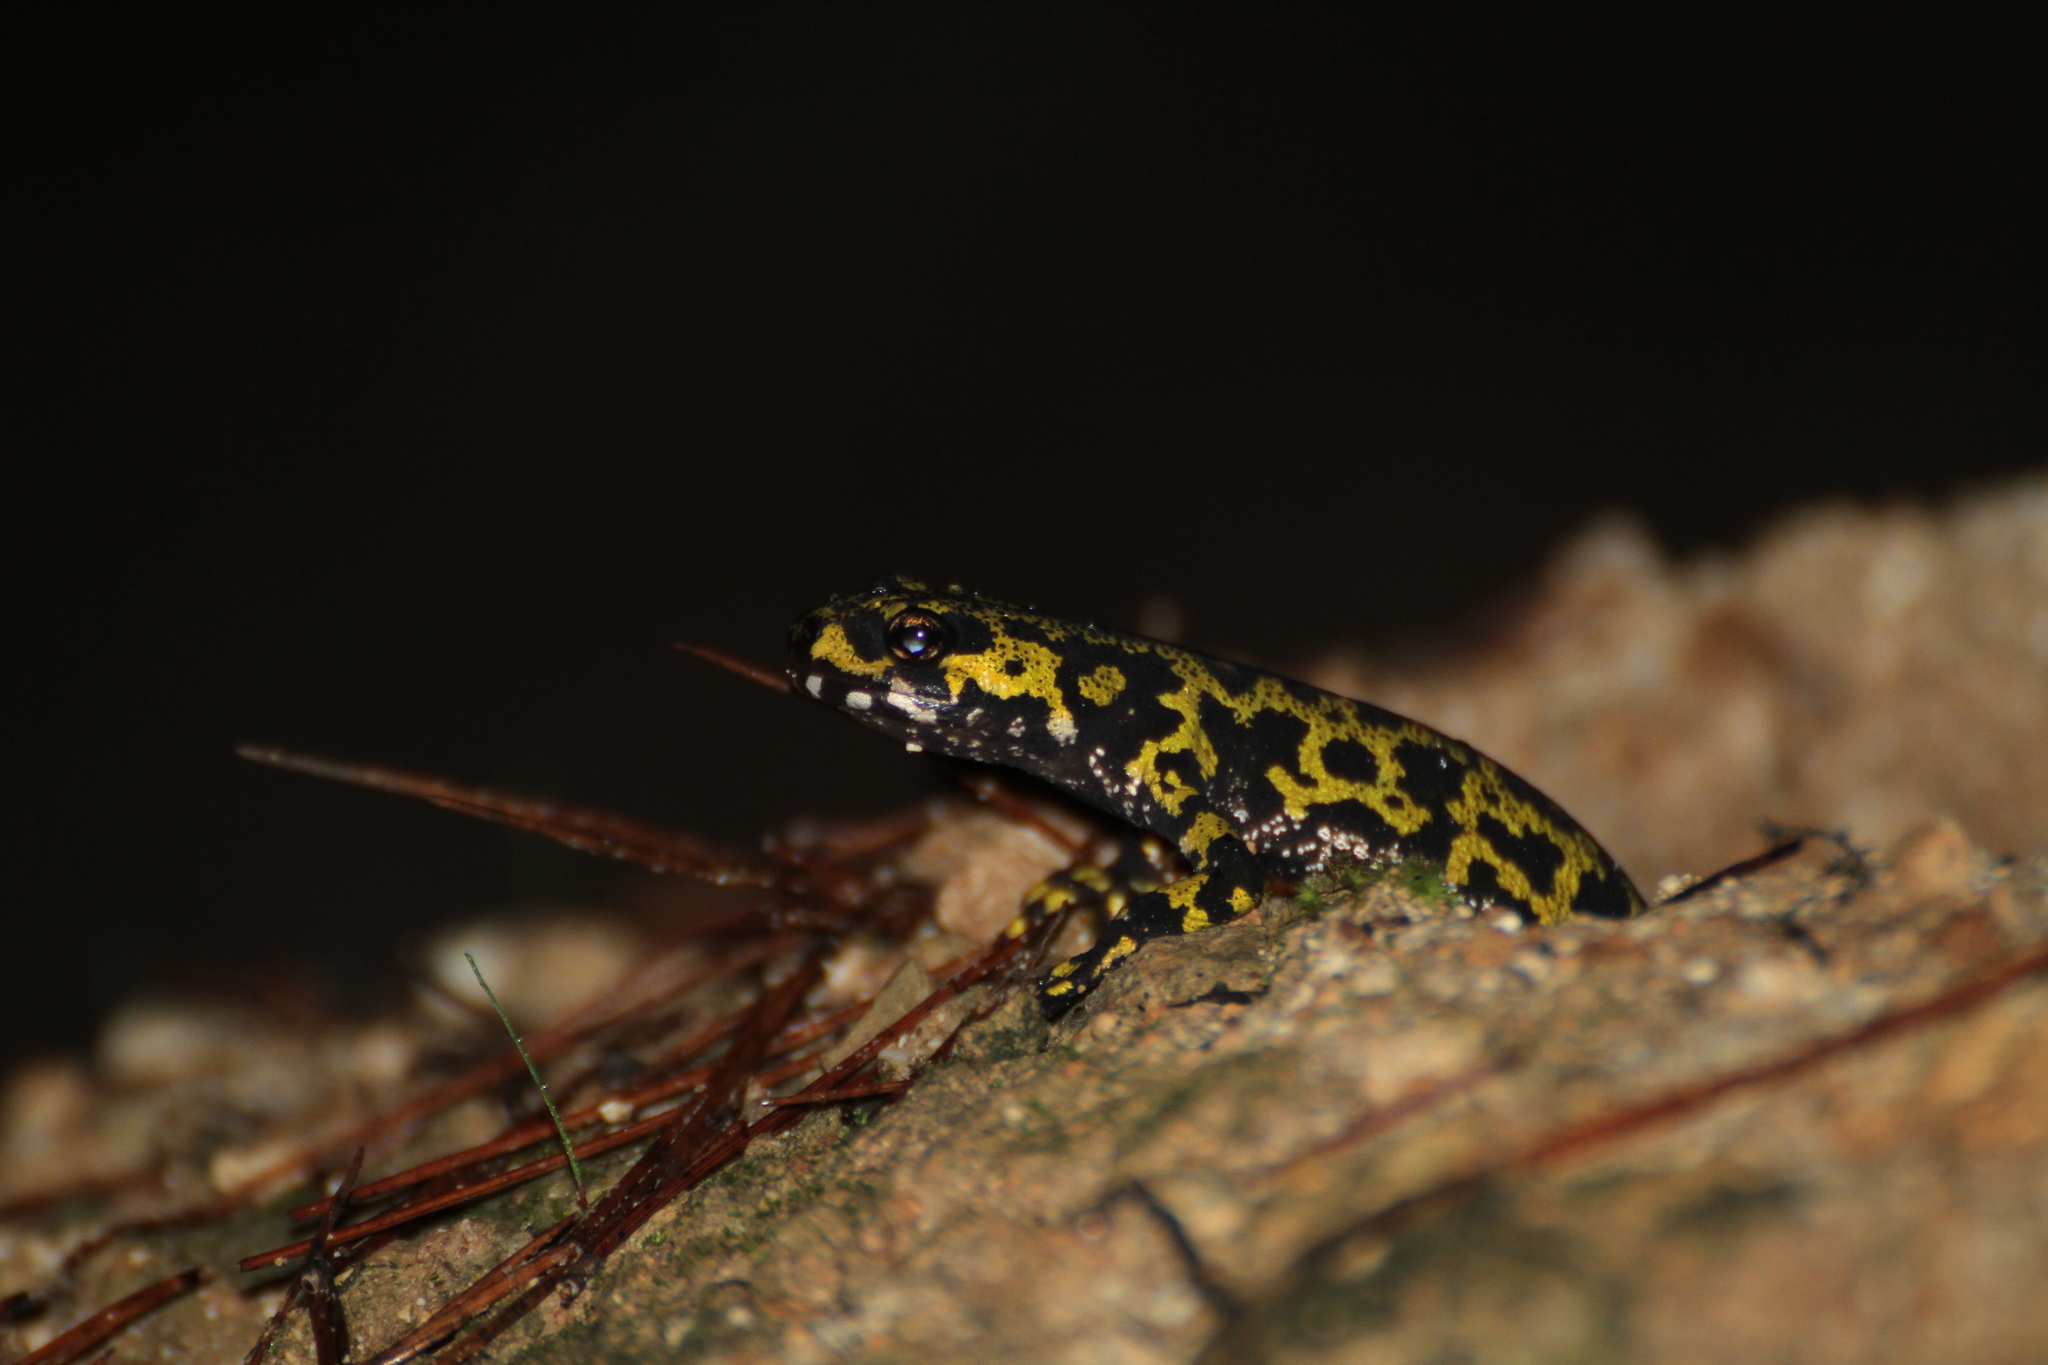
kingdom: Animalia
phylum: Chordata
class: Amphibia
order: Caudata
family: Salamandridae
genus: Triturus
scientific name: Triturus marmoratus
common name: Marbled newt
